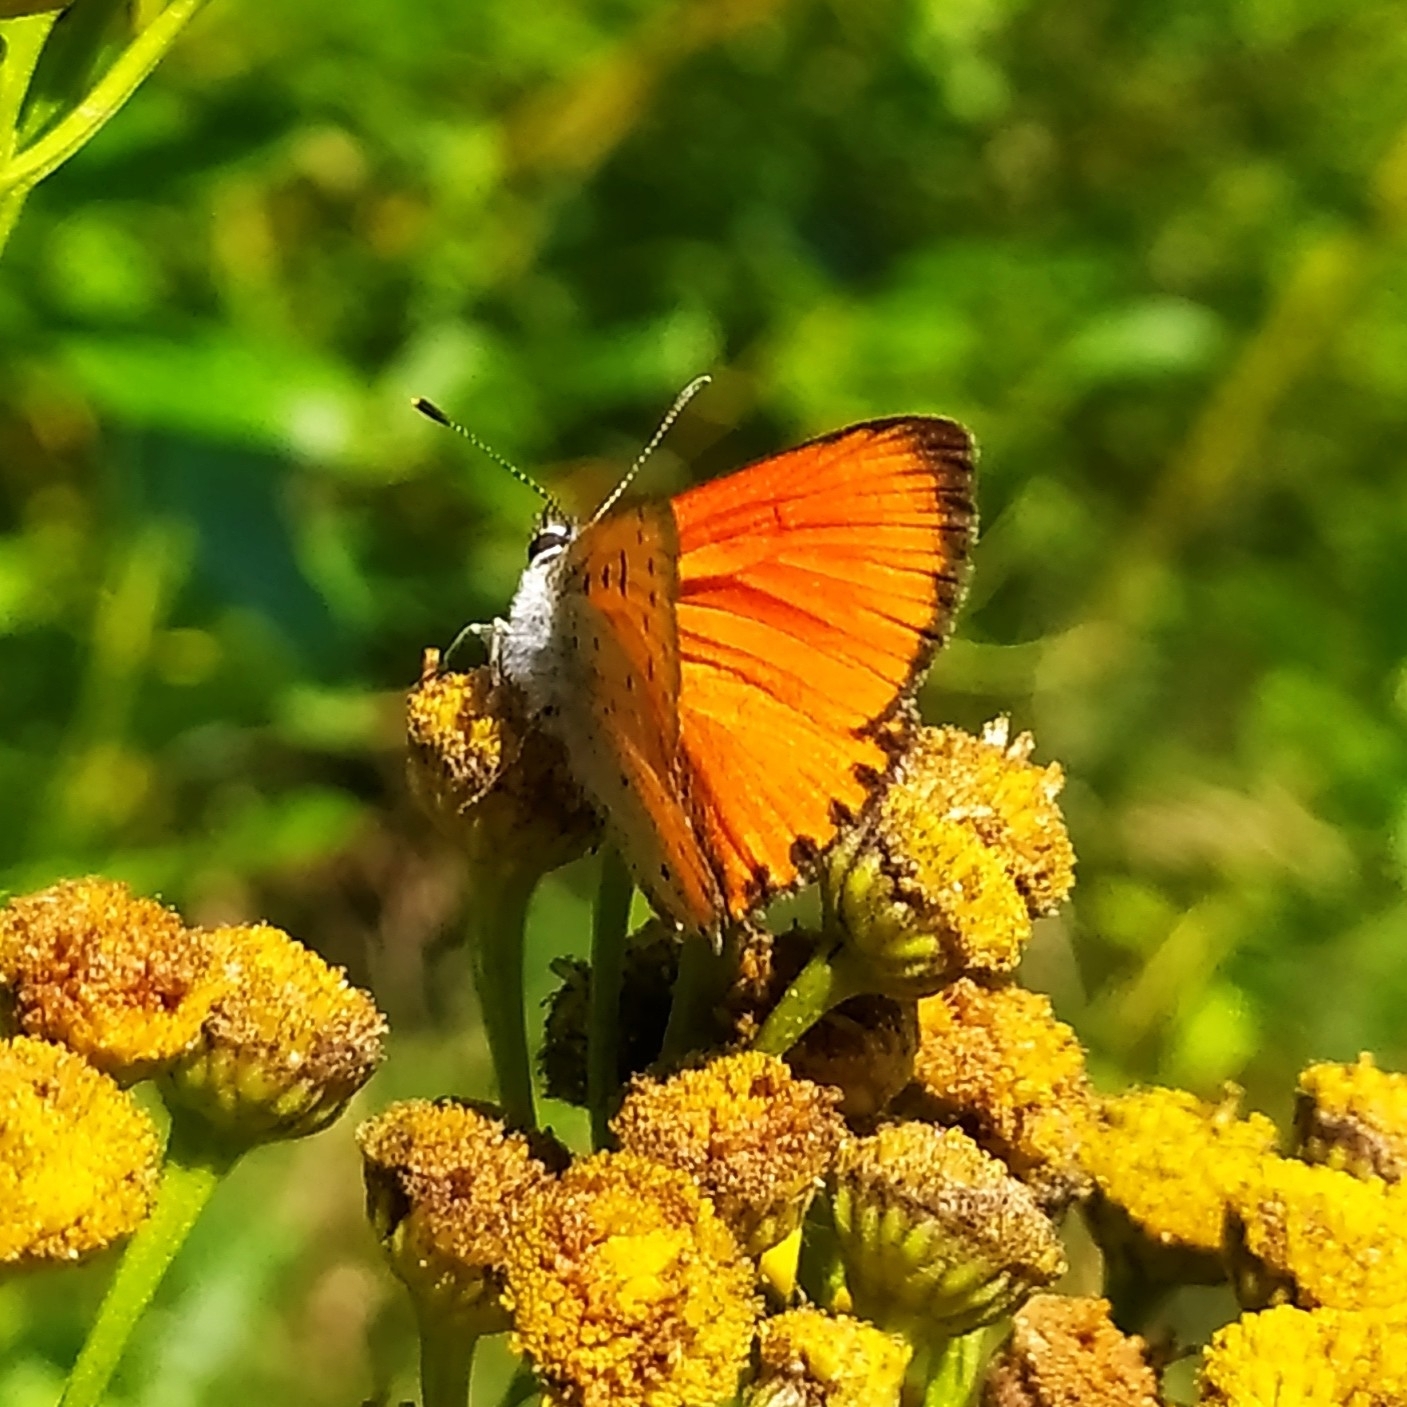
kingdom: Animalia
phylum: Arthropoda
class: Insecta
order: Lepidoptera
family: Lycaenidae
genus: Lycaena
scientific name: Lycaena virgaureae
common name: Scarce copper
